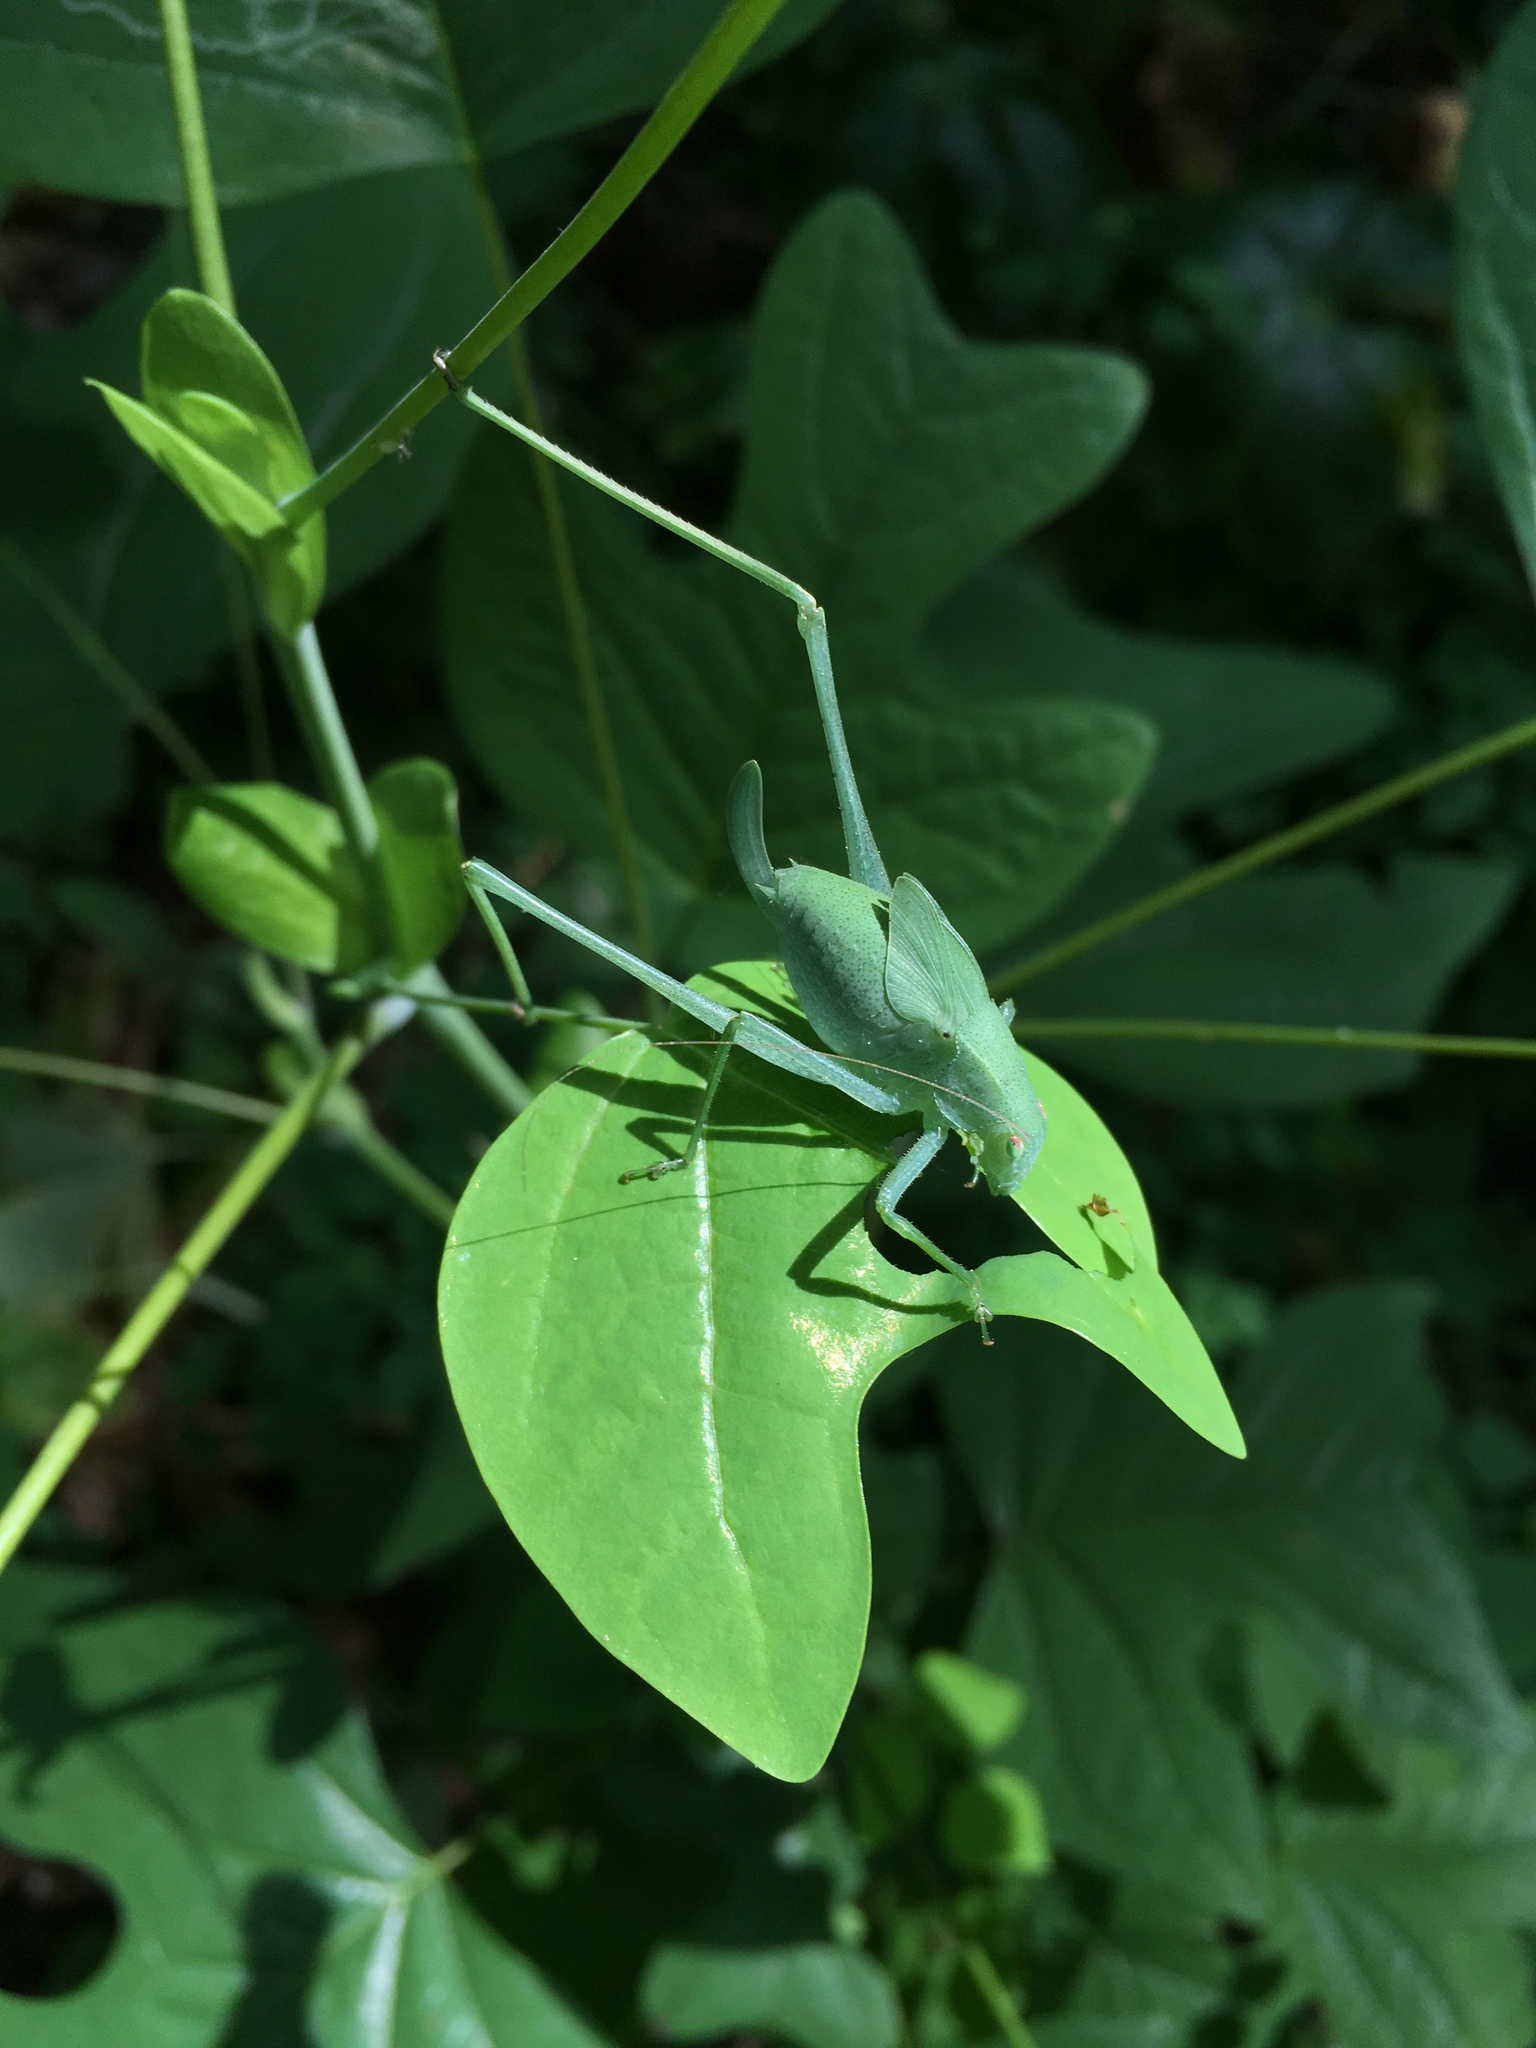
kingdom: Animalia
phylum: Arthropoda
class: Insecta
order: Orthoptera
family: Tettigoniidae
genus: Amblycorypha
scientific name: Amblycorypha oblongifolia
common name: Oblong-winged katydid
